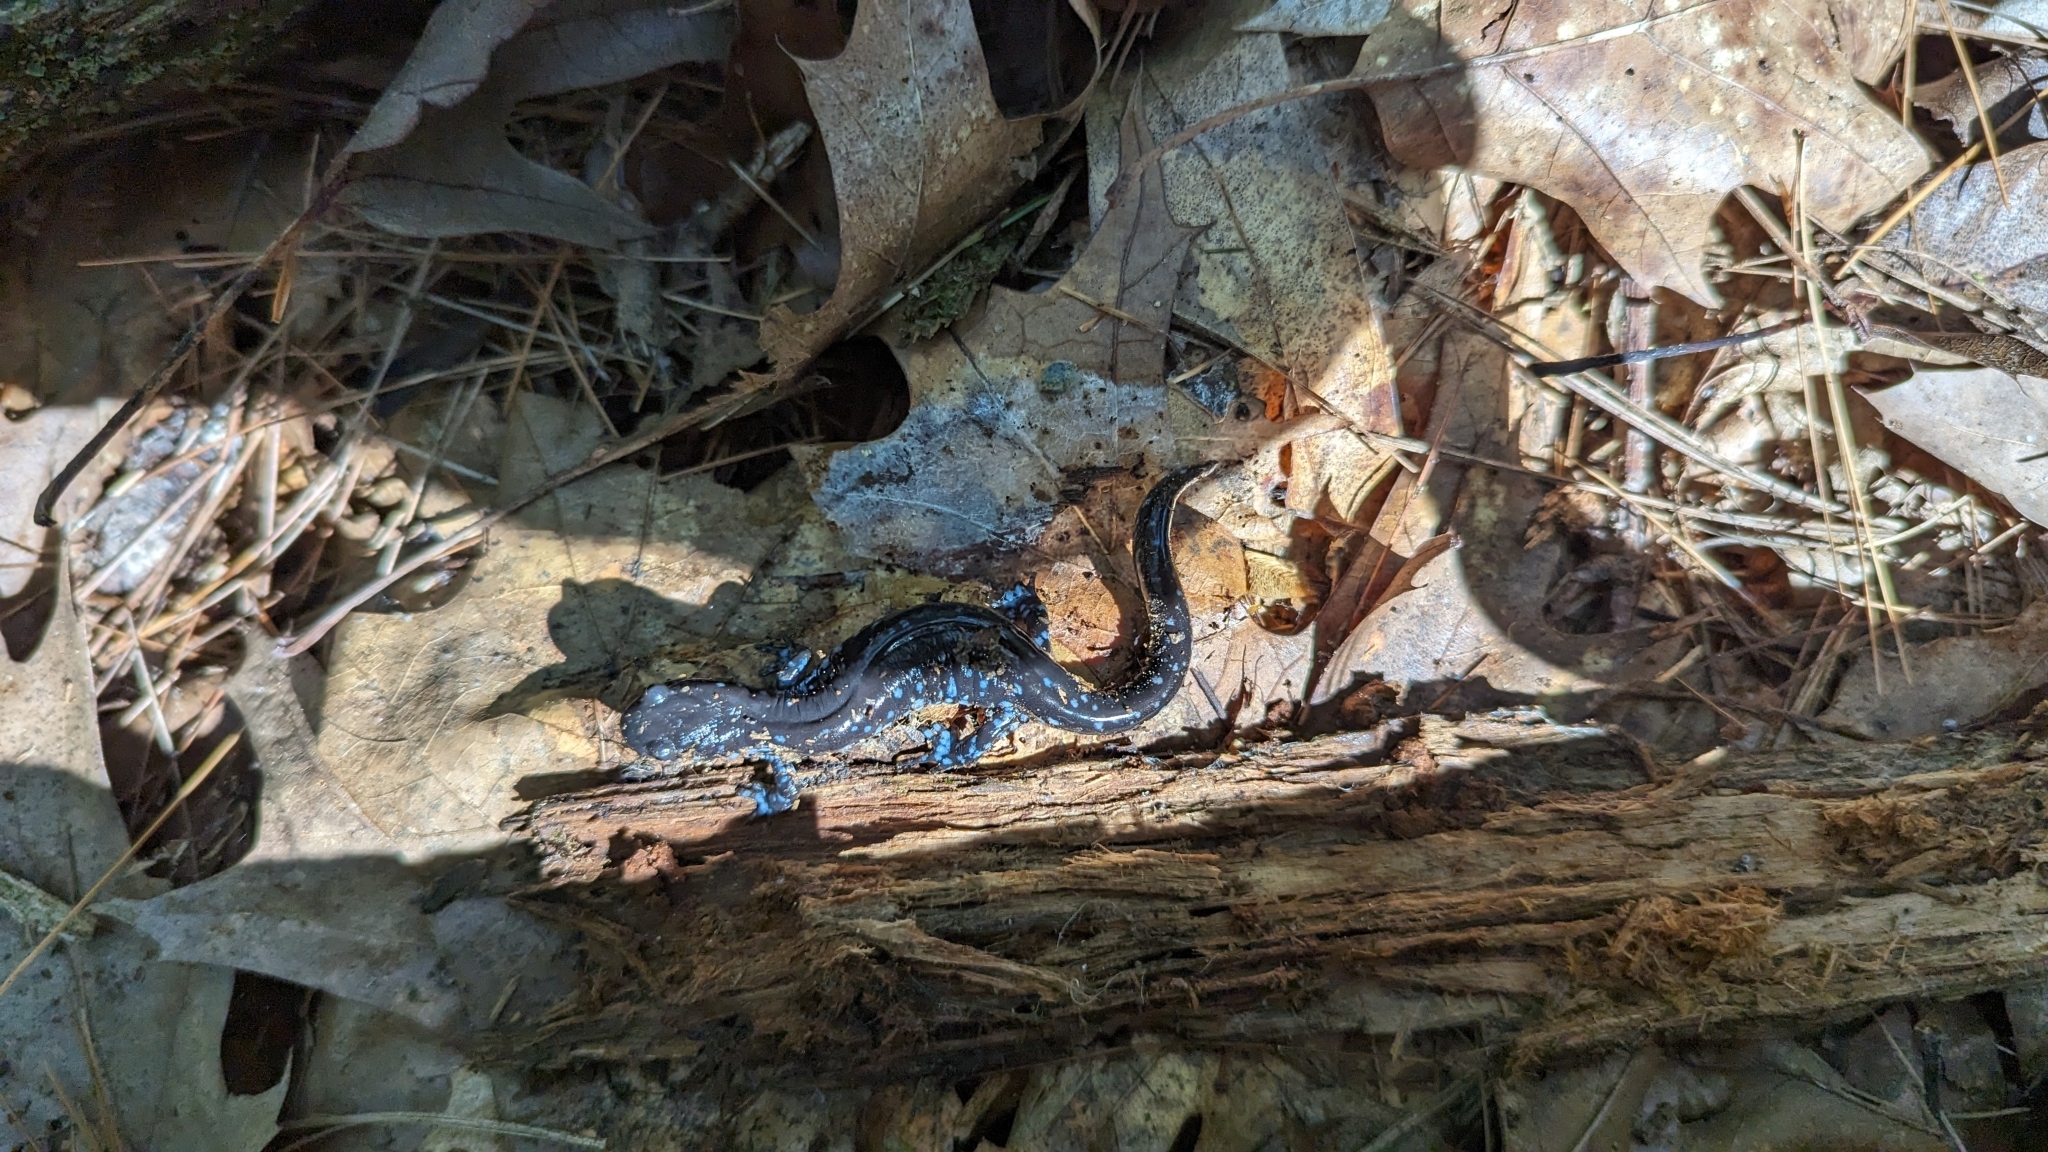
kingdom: Animalia
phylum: Chordata
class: Amphibia
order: Caudata
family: Ambystomatidae
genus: Ambystoma
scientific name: Ambystoma laterale
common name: Blue-spotted salamander
